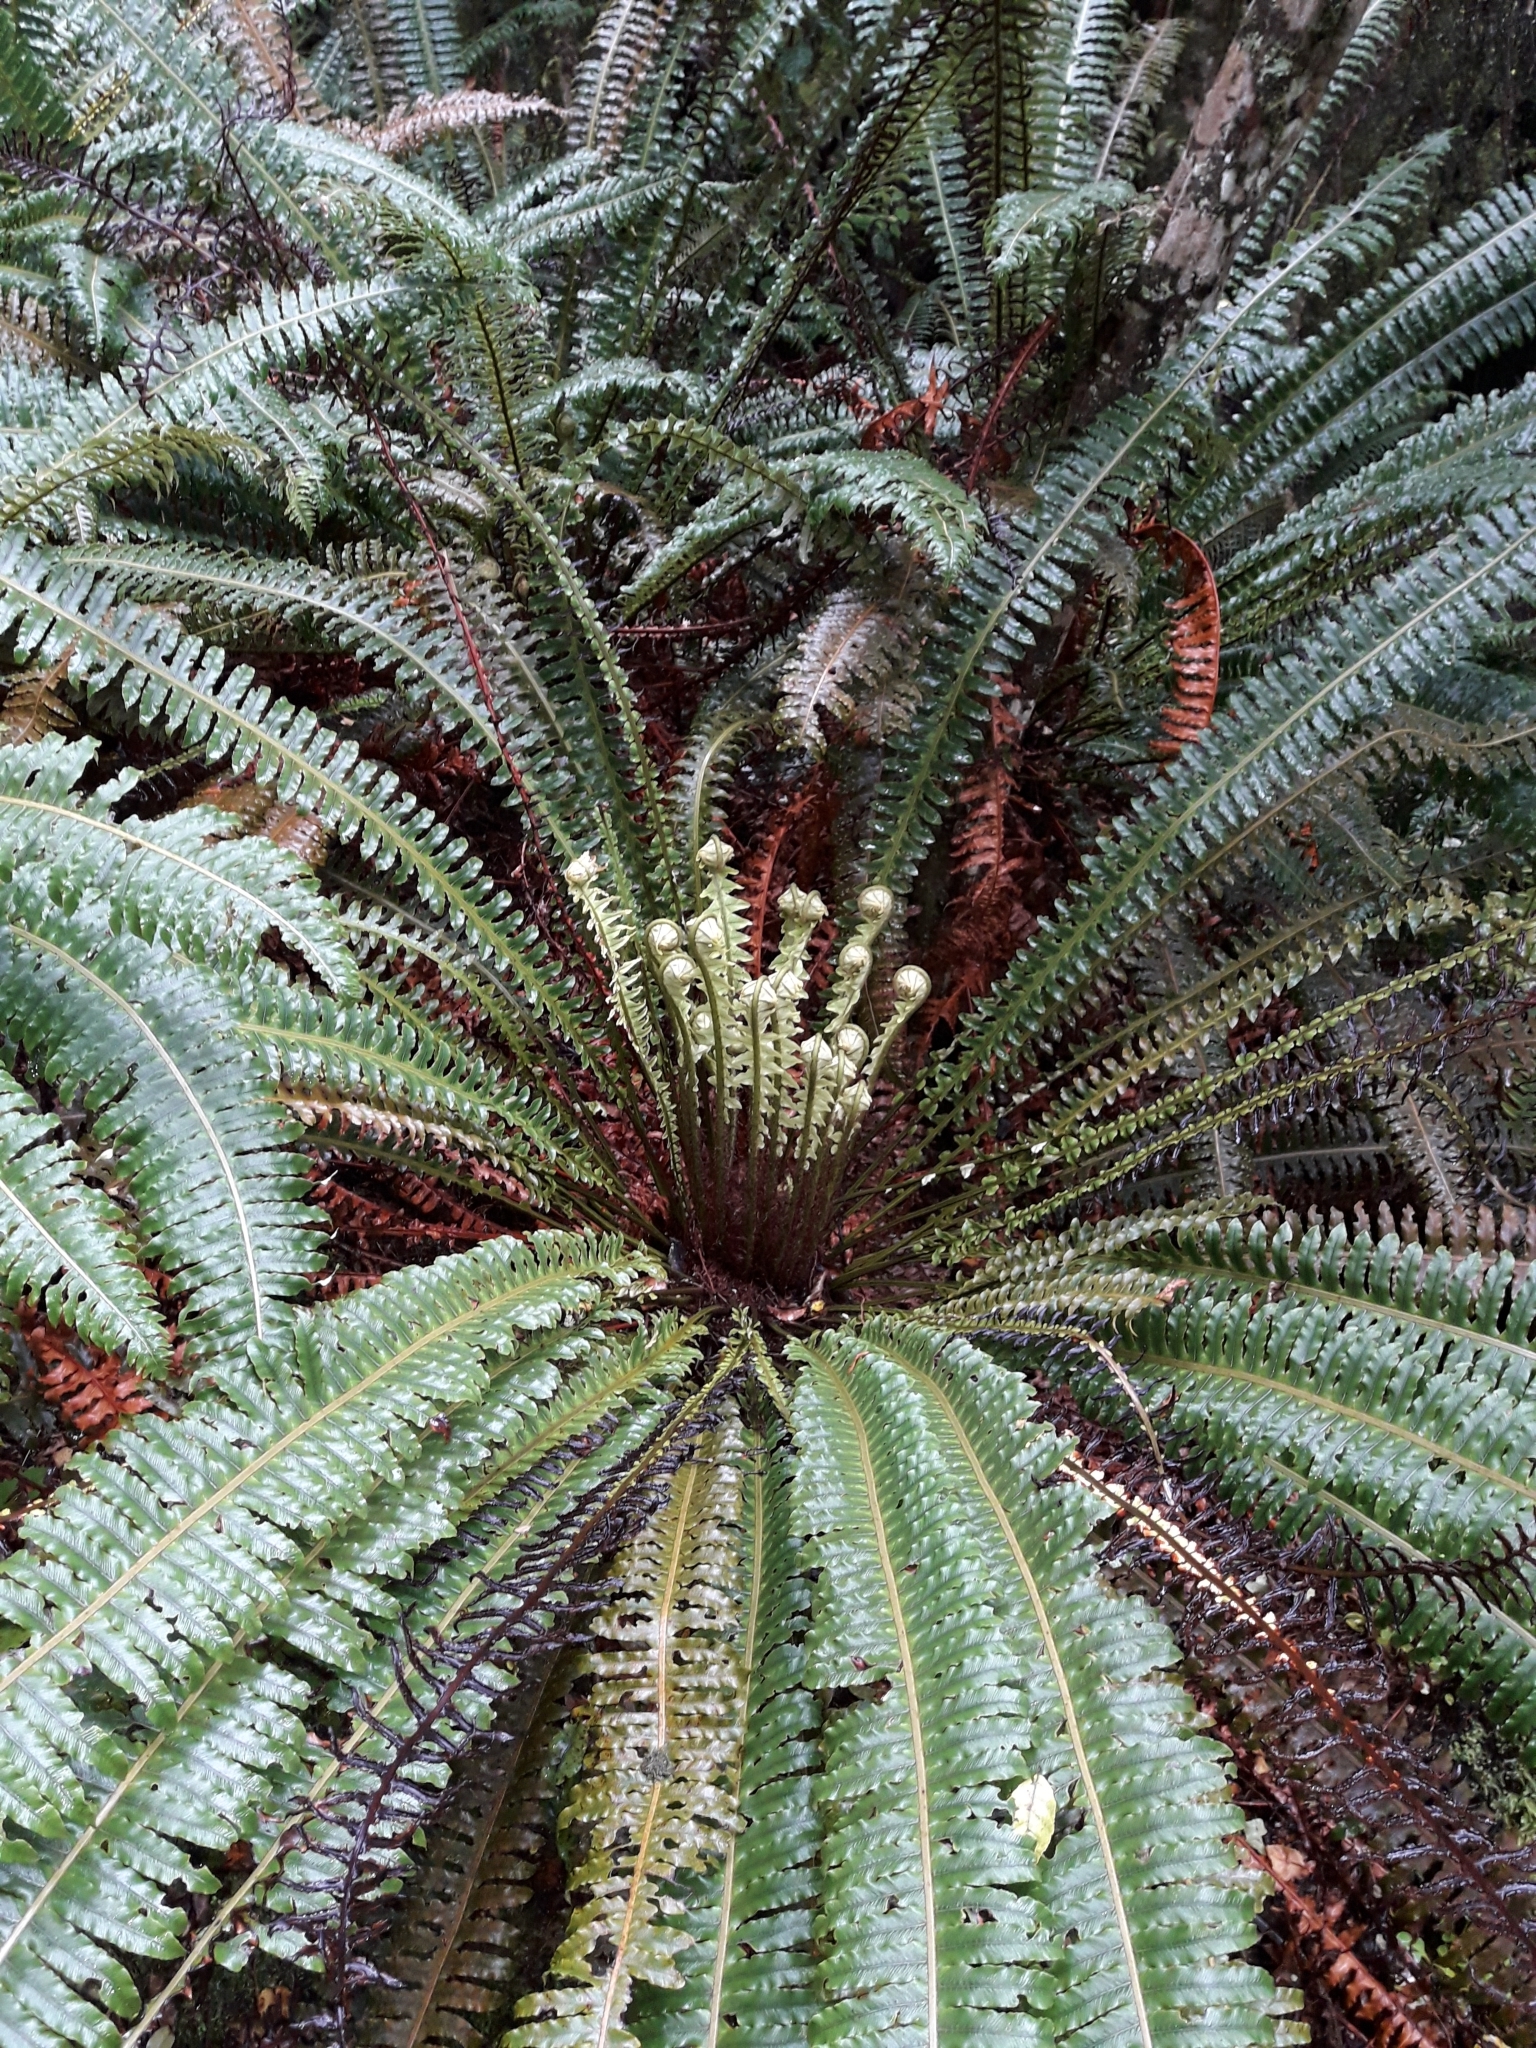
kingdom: Plantae
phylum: Tracheophyta
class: Polypodiopsida
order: Polypodiales
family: Blechnaceae
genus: Lomaria
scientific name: Lomaria discolor
